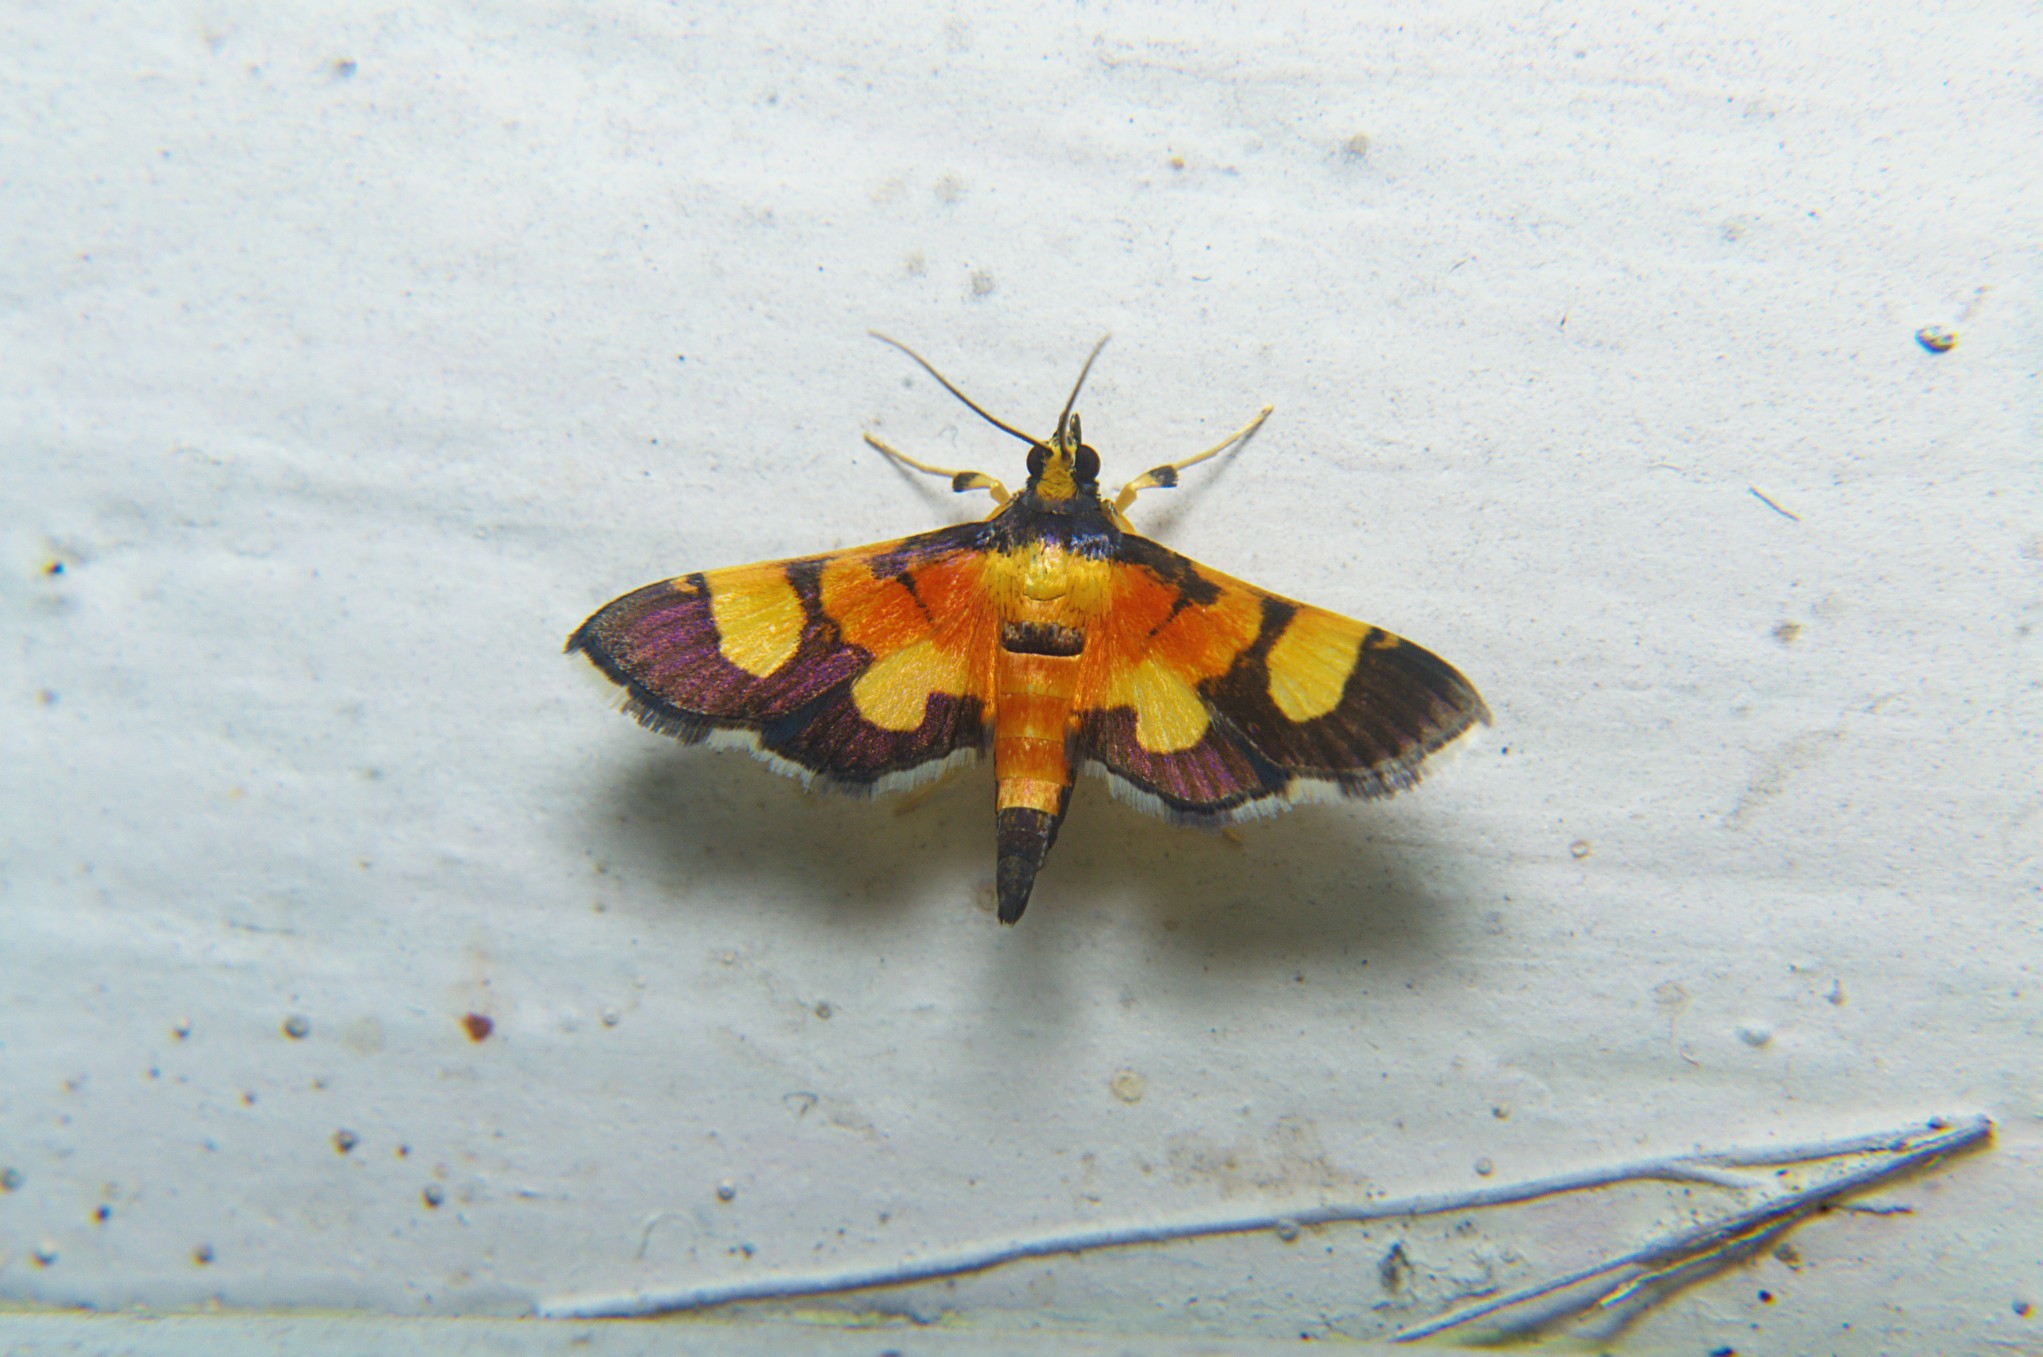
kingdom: Animalia
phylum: Arthropoda
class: Insecta
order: Lepidoptera
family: Crambidae
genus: Aethaloessa
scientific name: Aethaloessa calidalis
